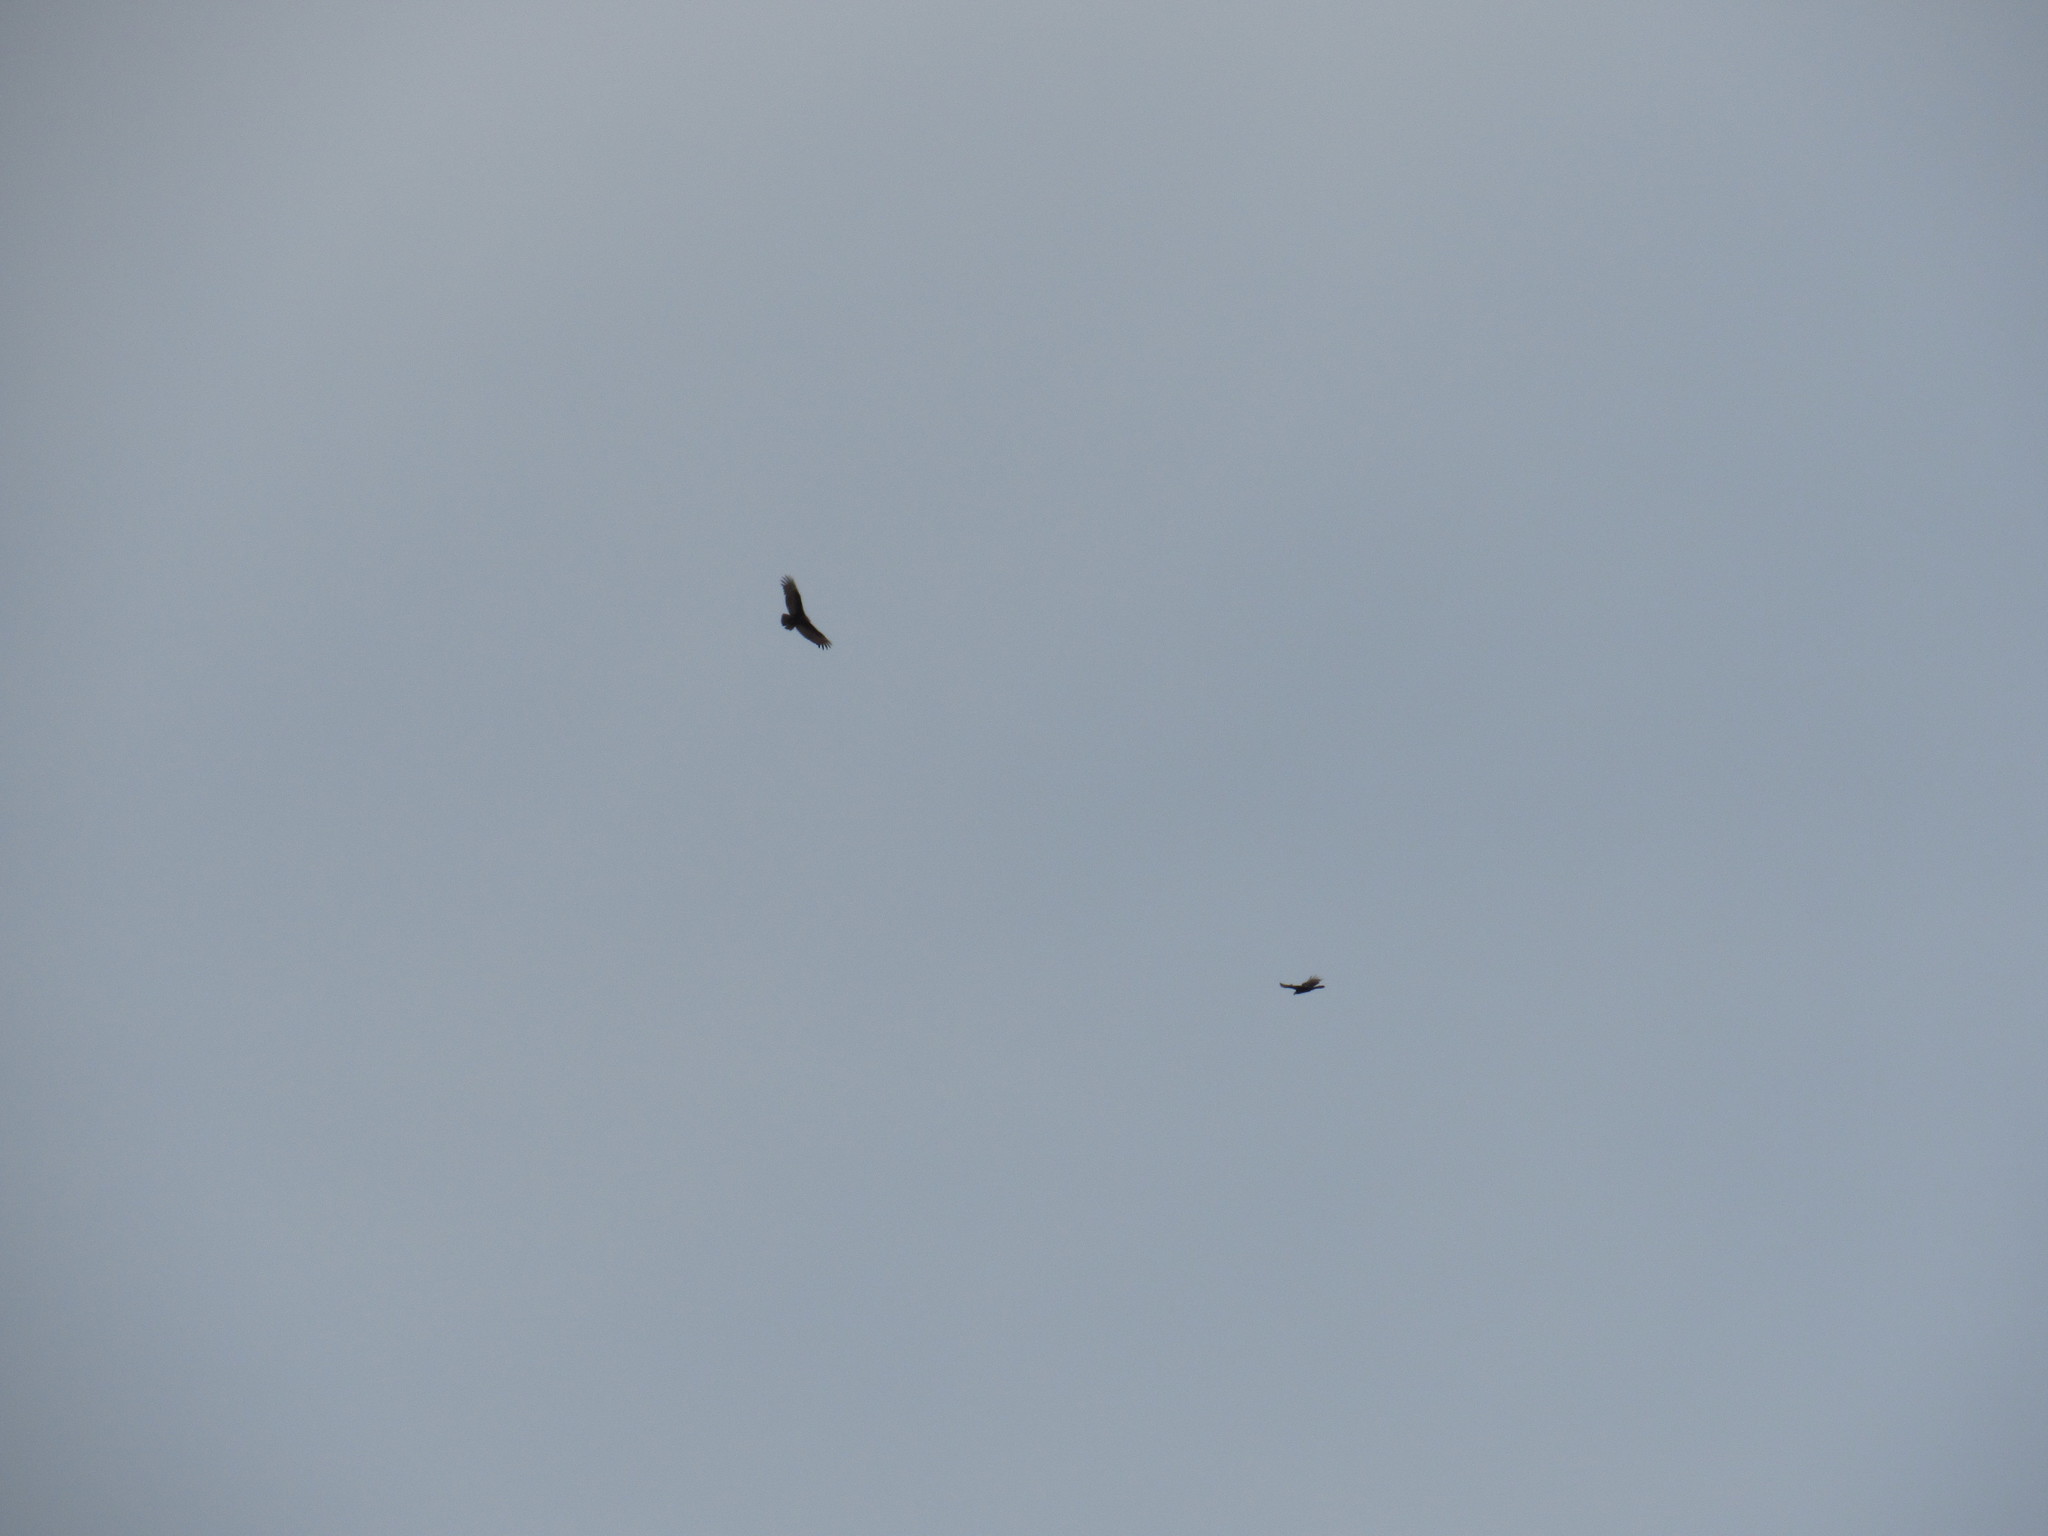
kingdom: Animalia
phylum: Chordata
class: Aves
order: Accipitriformes
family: Cathartidae
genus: Cathartes
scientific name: Cathartes aura
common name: Turkey vulture
